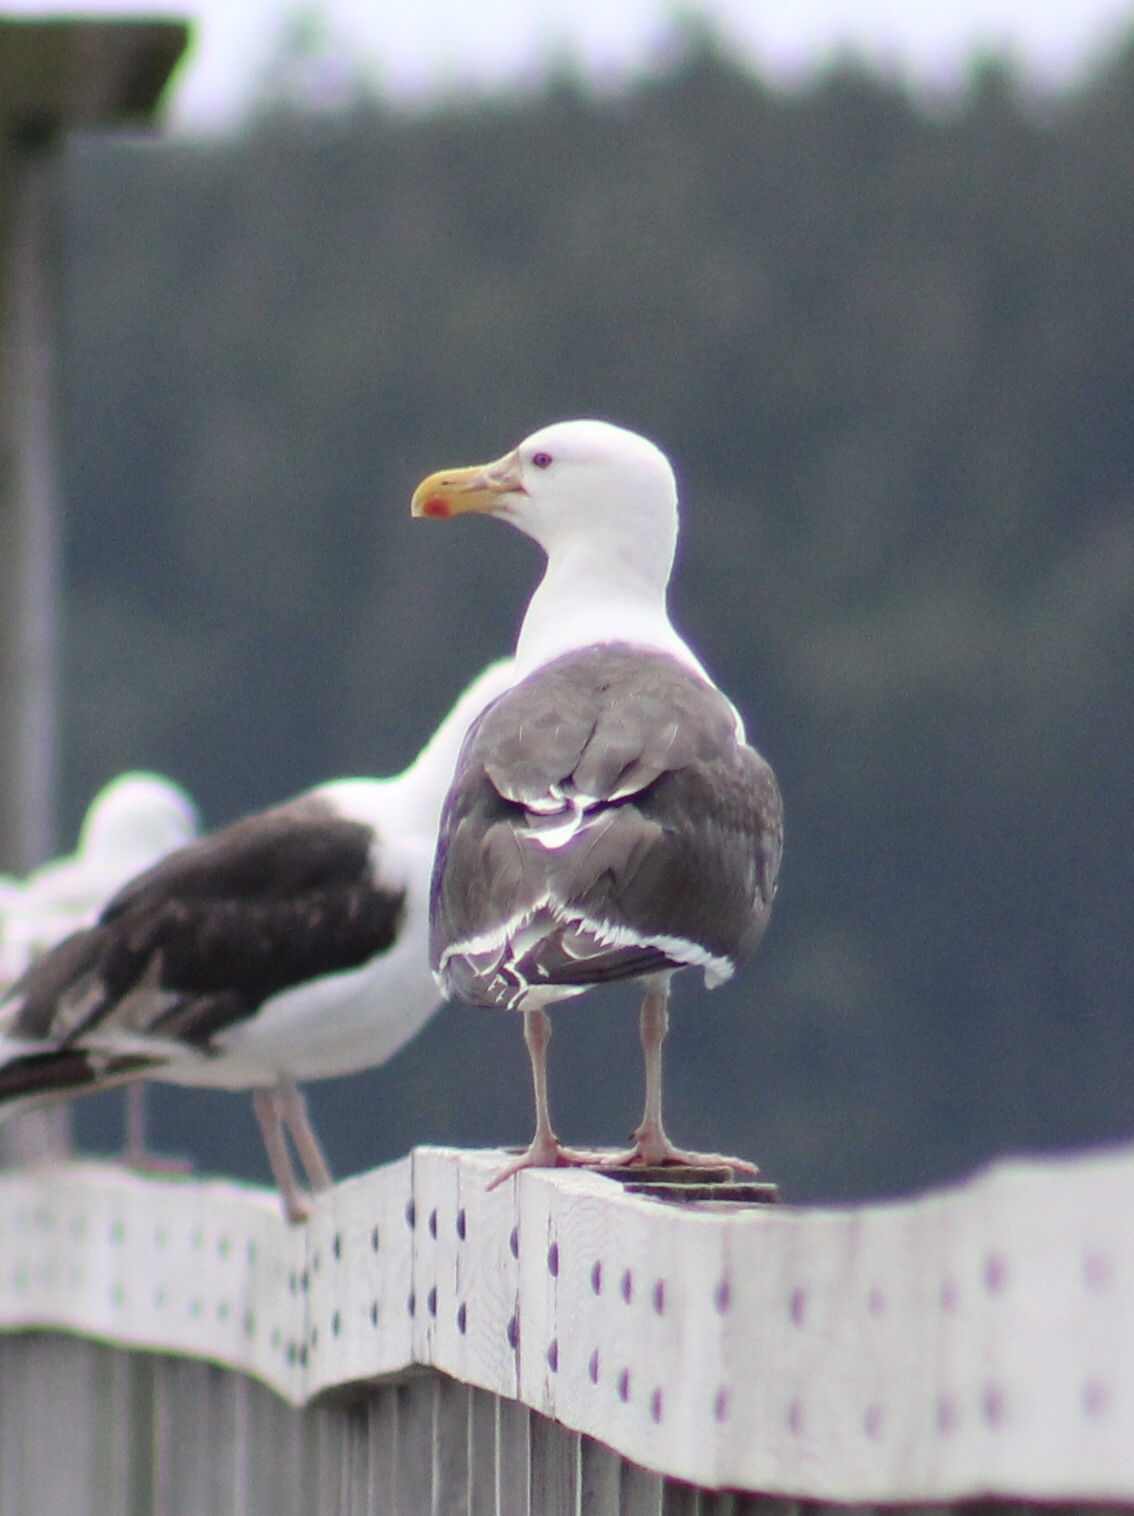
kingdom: Animalia
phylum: Chordata
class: Aves
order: Charadriiformes
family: Laridae
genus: Larus
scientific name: Larus marinus
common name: Great black-backed gull
